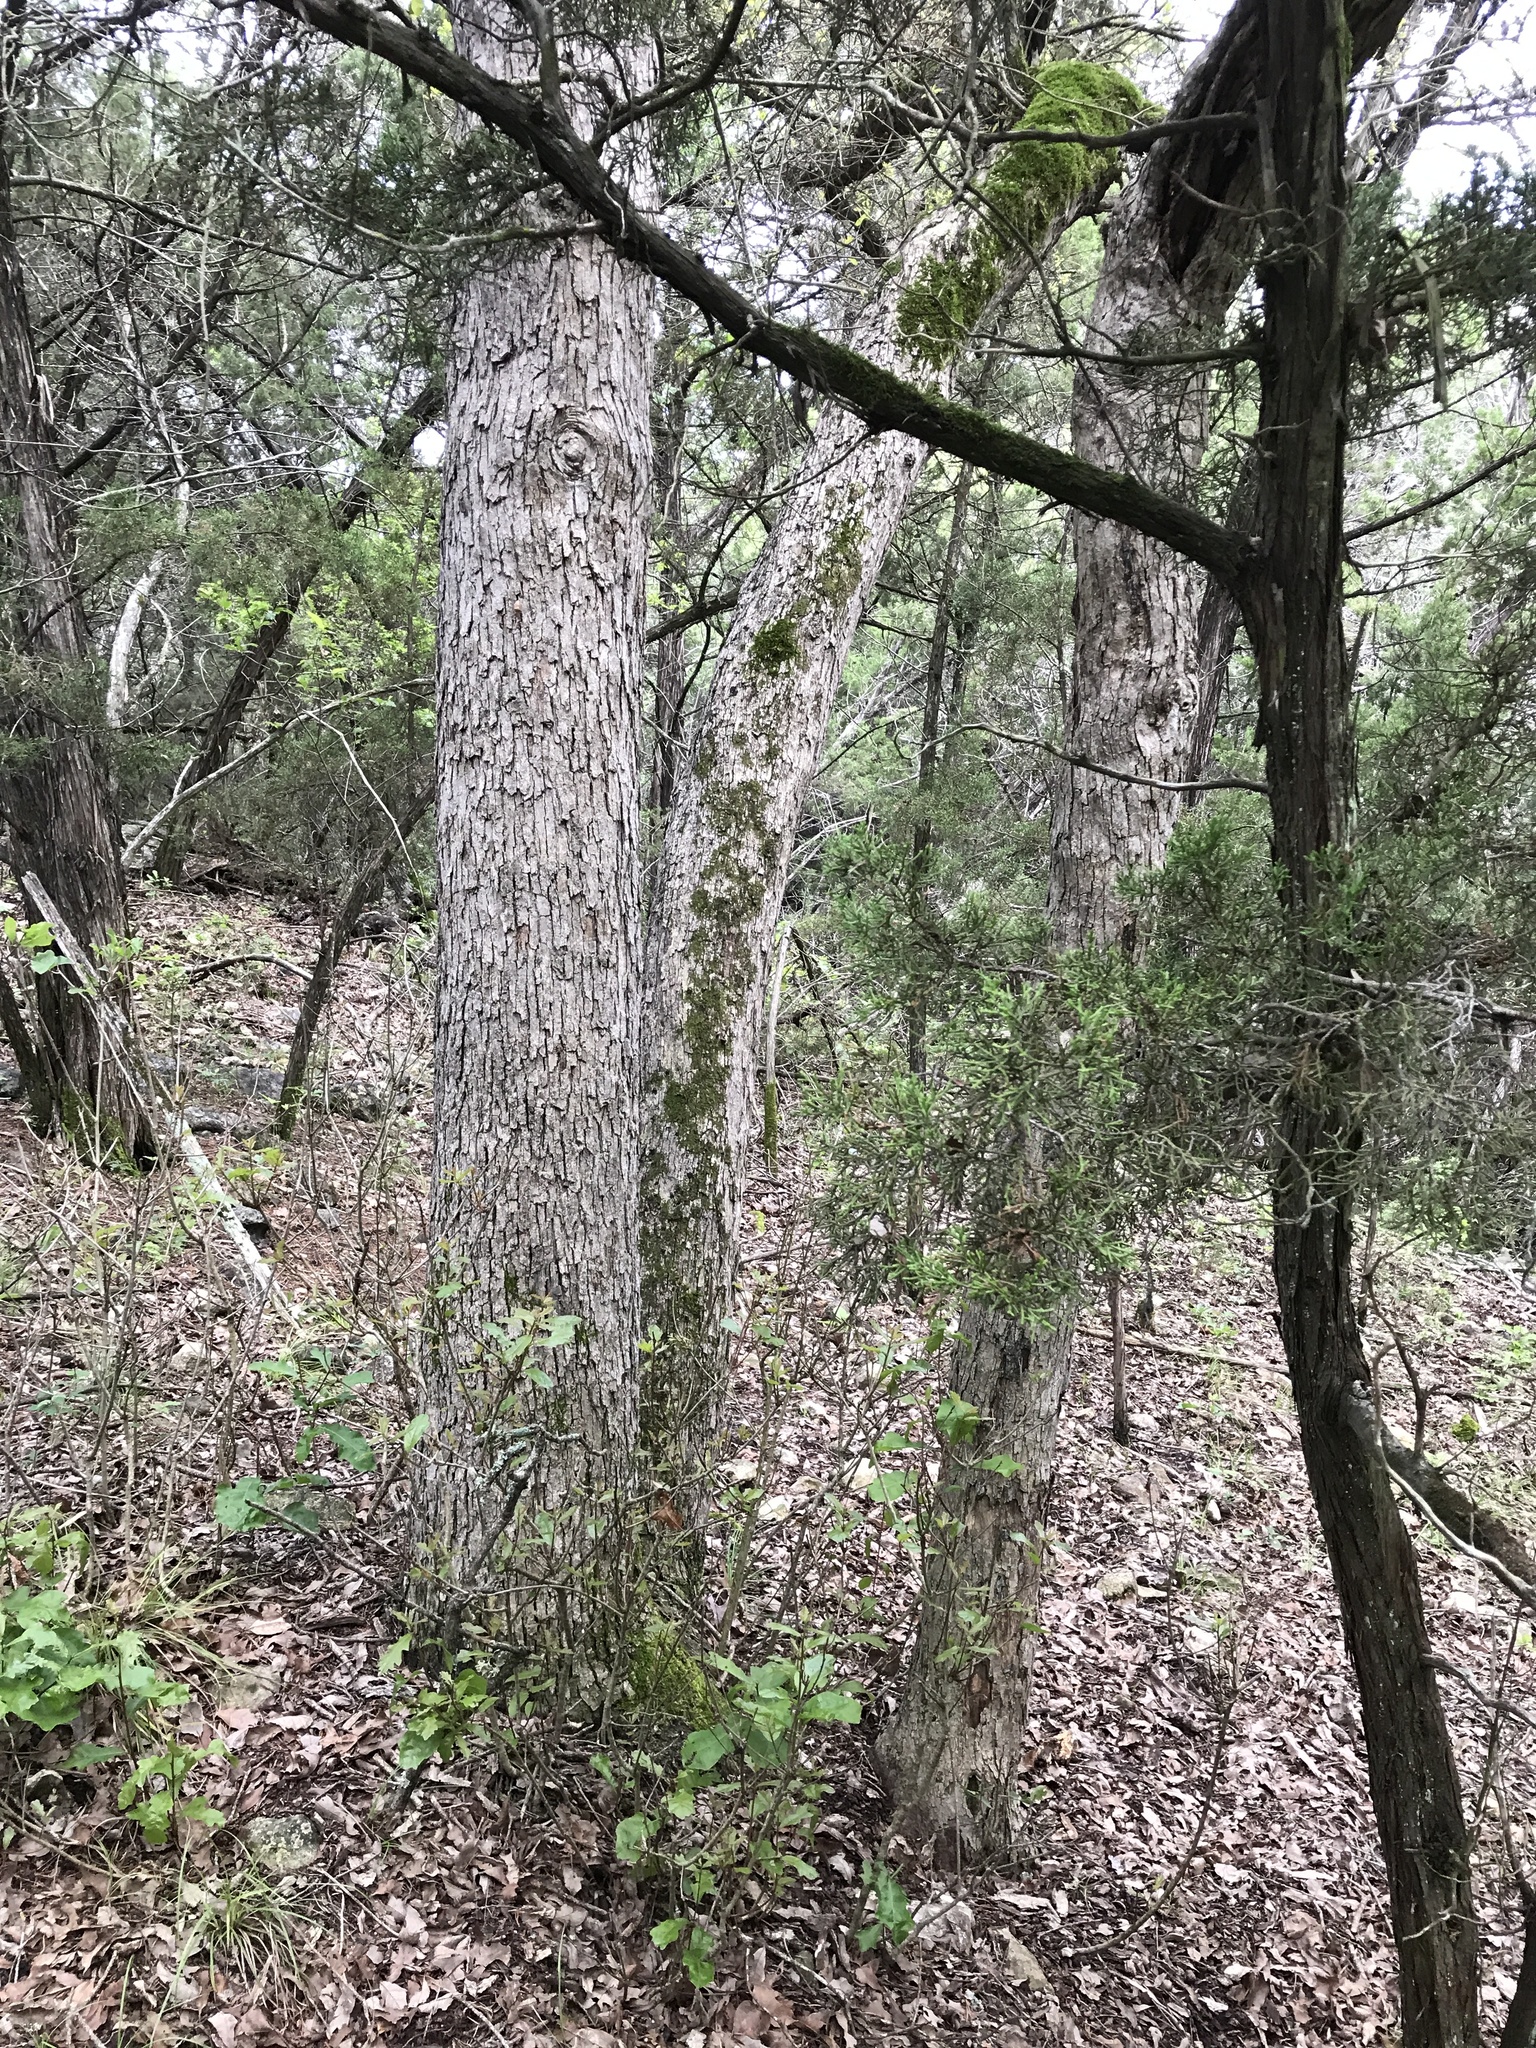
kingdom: Plantae
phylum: Tracheophyta
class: Magnoliopsida
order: Fagales
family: Fagaceae
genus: Quercus
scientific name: Quercus sinuata
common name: Durand oak
